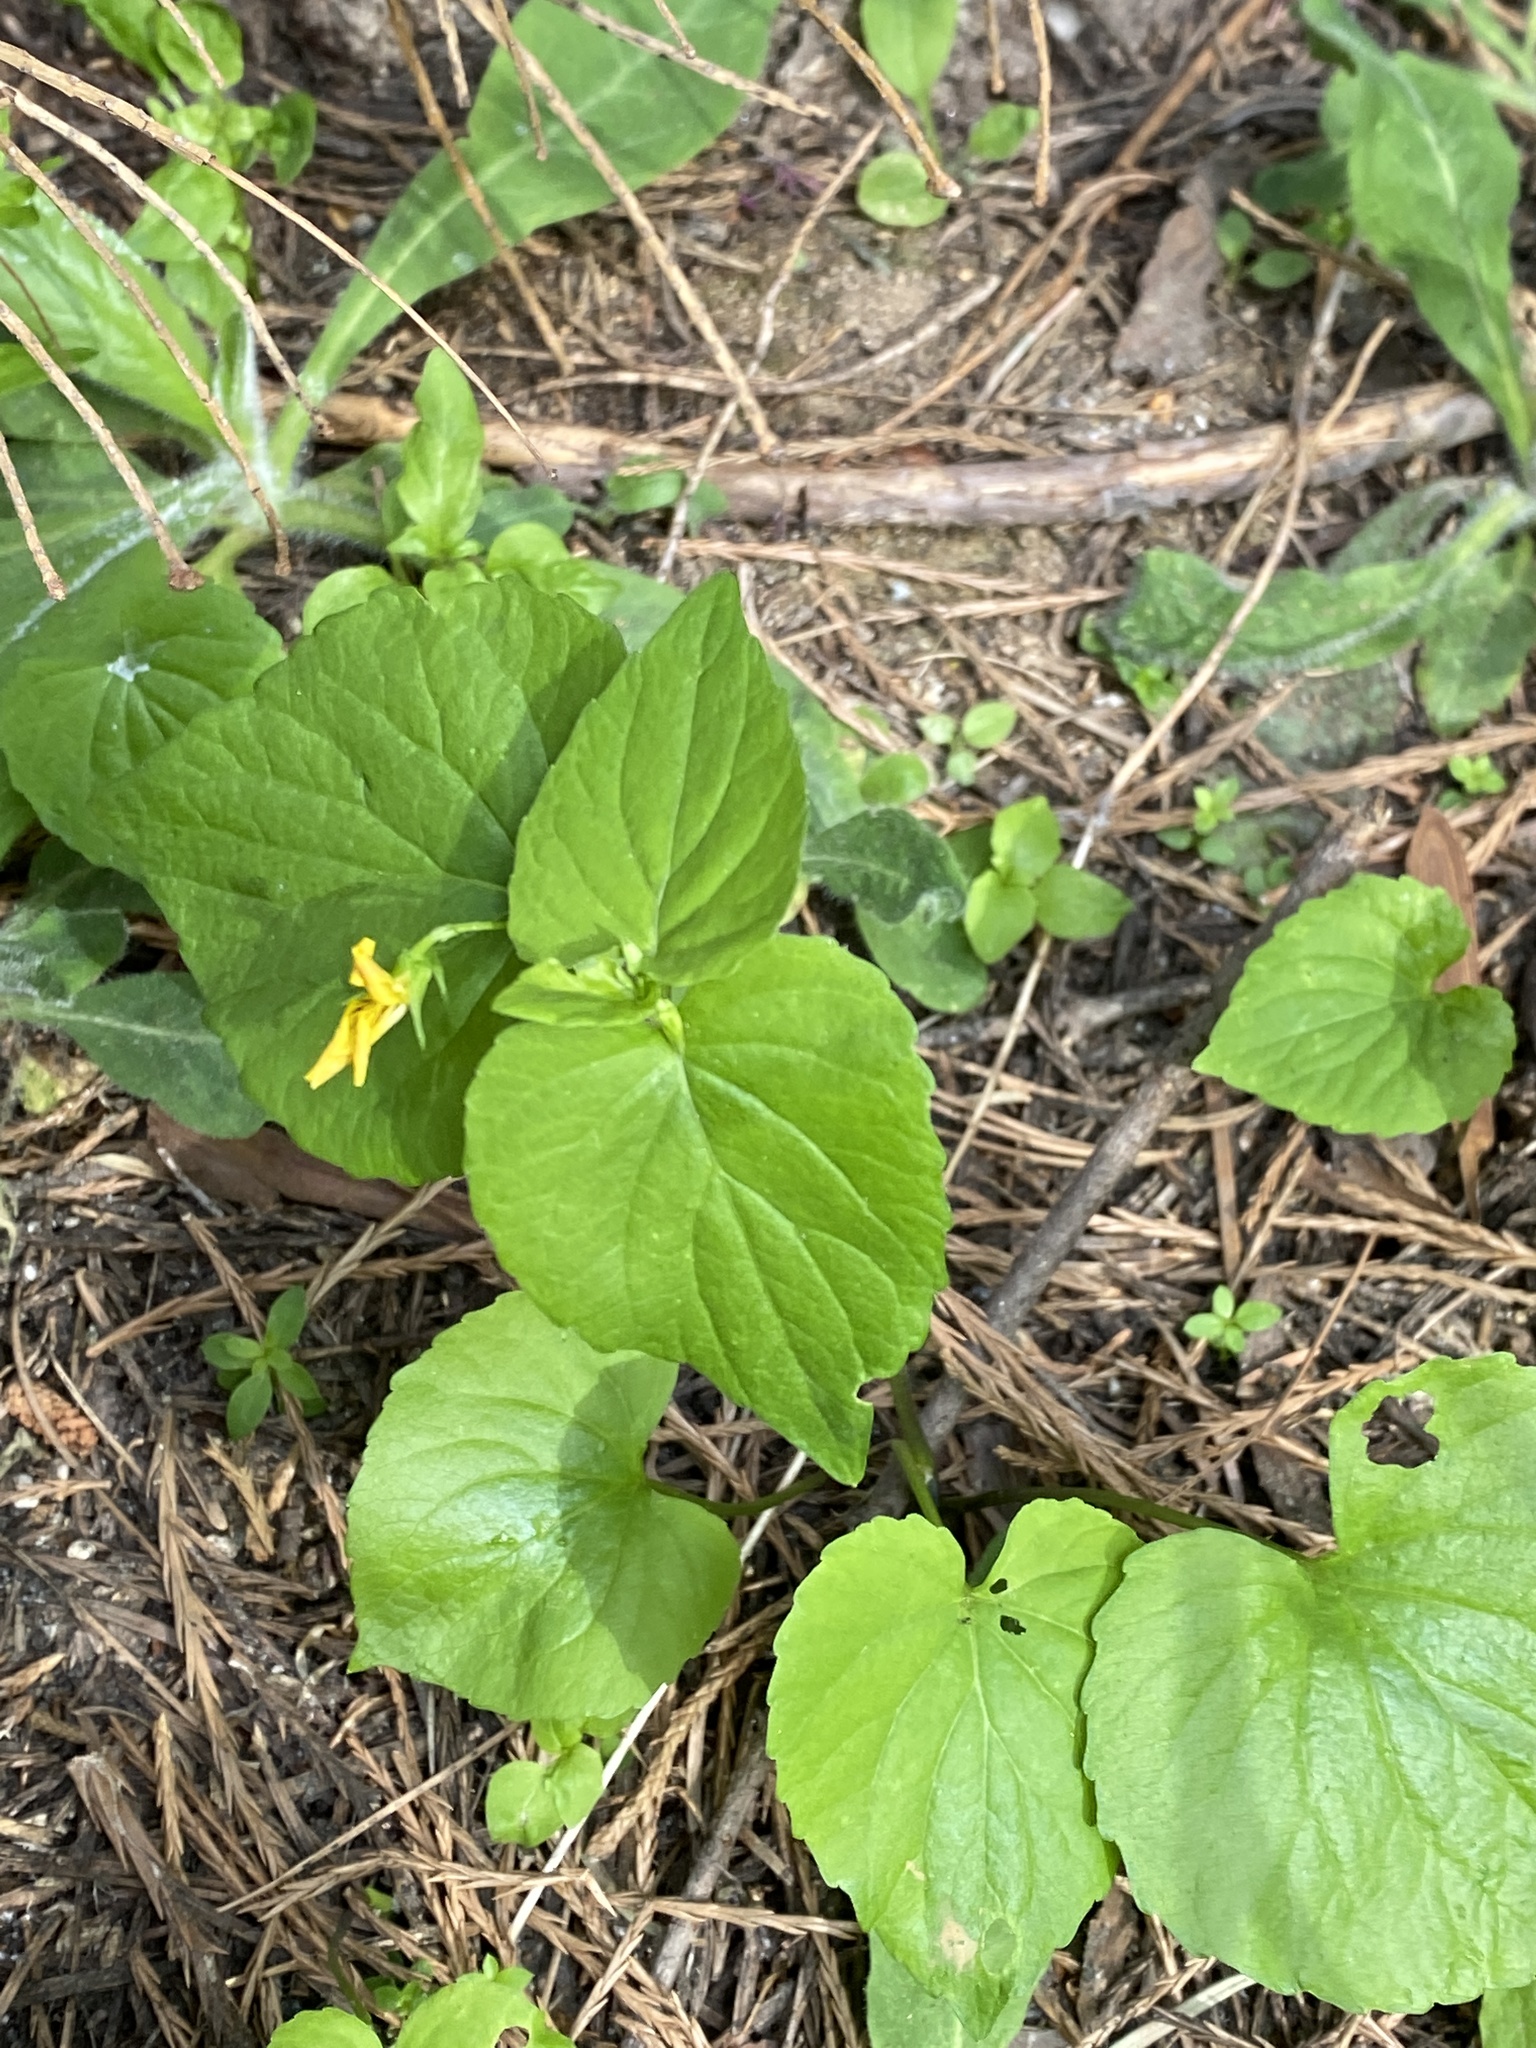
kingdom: Plantae
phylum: Tracheophyta
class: Magnoliopsida
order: Malpighiales
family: Violaceae
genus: Viola
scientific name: Viola glabella
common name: Stream violet
